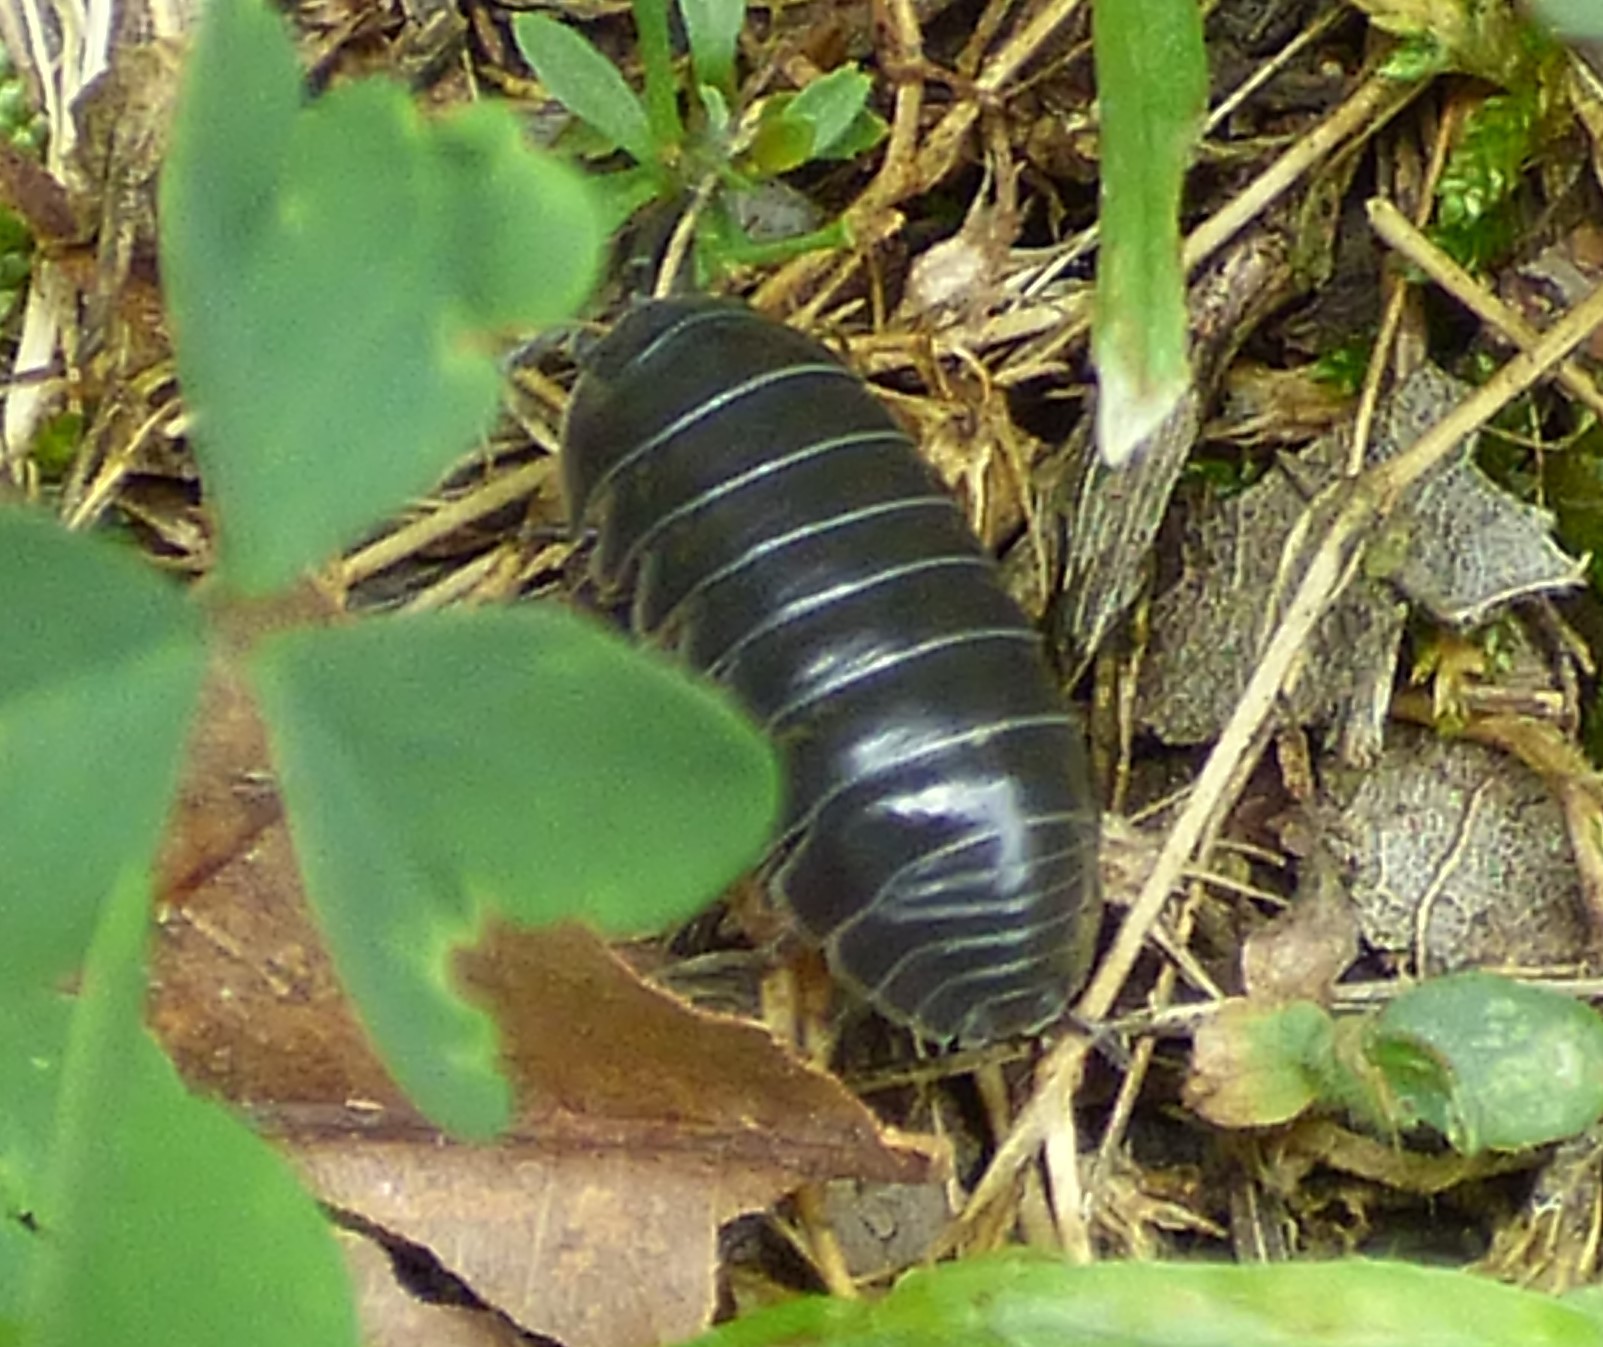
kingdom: Animalia
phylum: Arthropoda
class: Malacostraca
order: Isopoda
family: Armadillidiidae
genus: Armadillidium
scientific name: Armadillidium vulgare
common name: Common pill woodlouse
